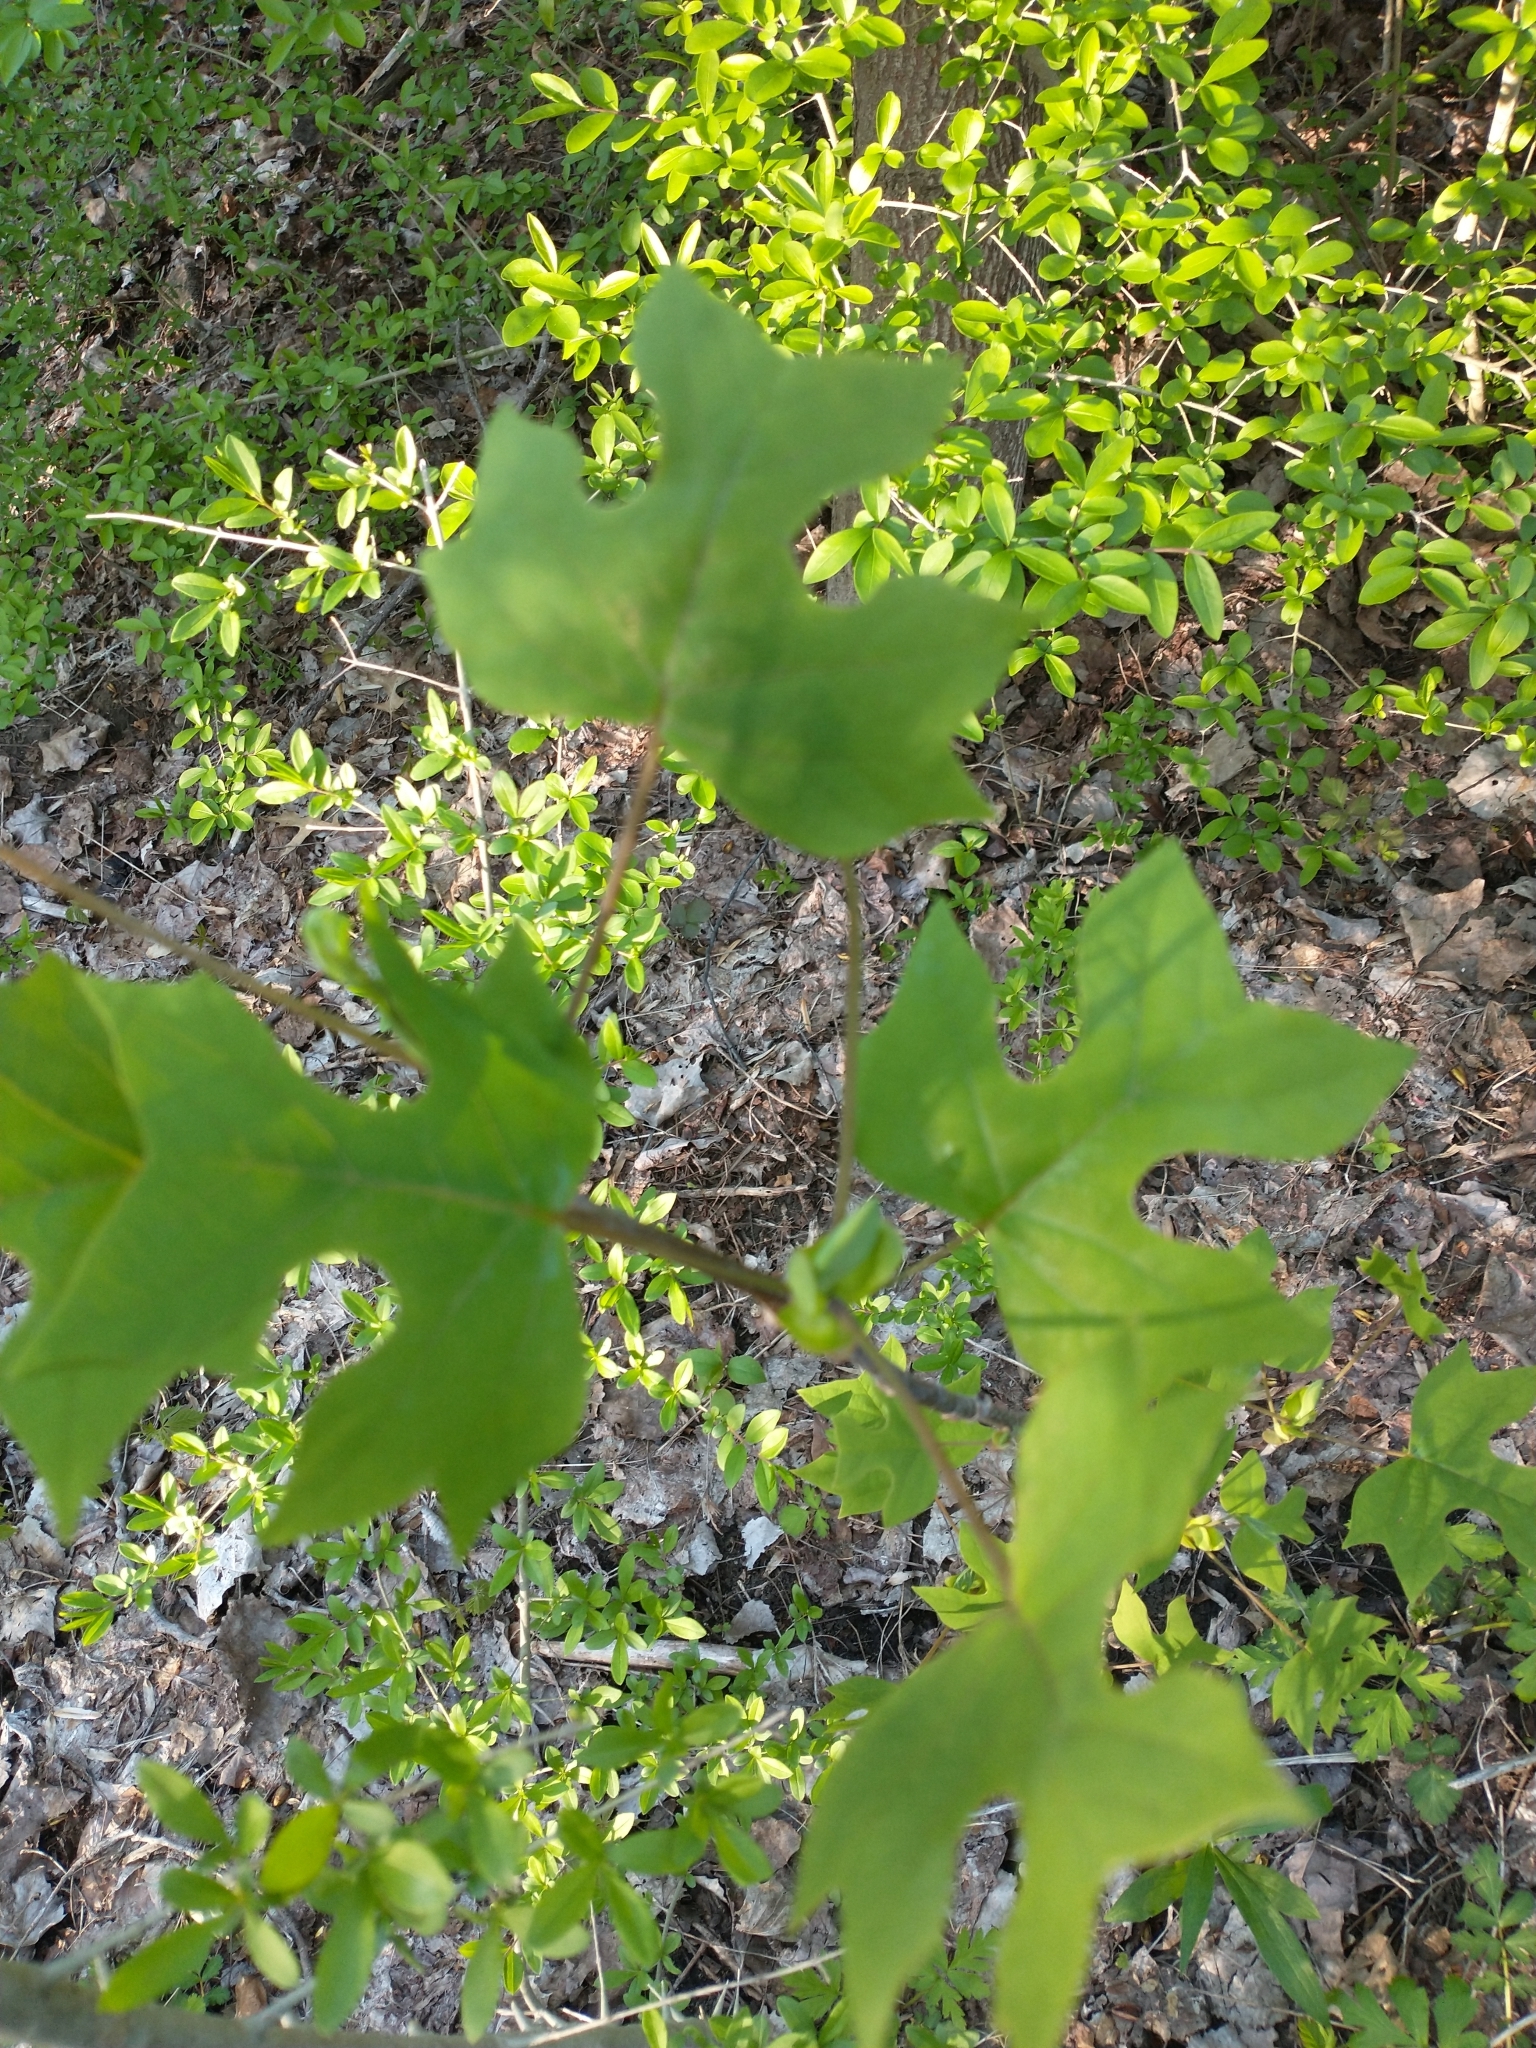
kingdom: Plantae
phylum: Tracheophyta
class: Magnoliopsida
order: Magnoliales
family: Magnoliaceae
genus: Liriodendron
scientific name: Liriodendron tulipifera
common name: Tulip tree
